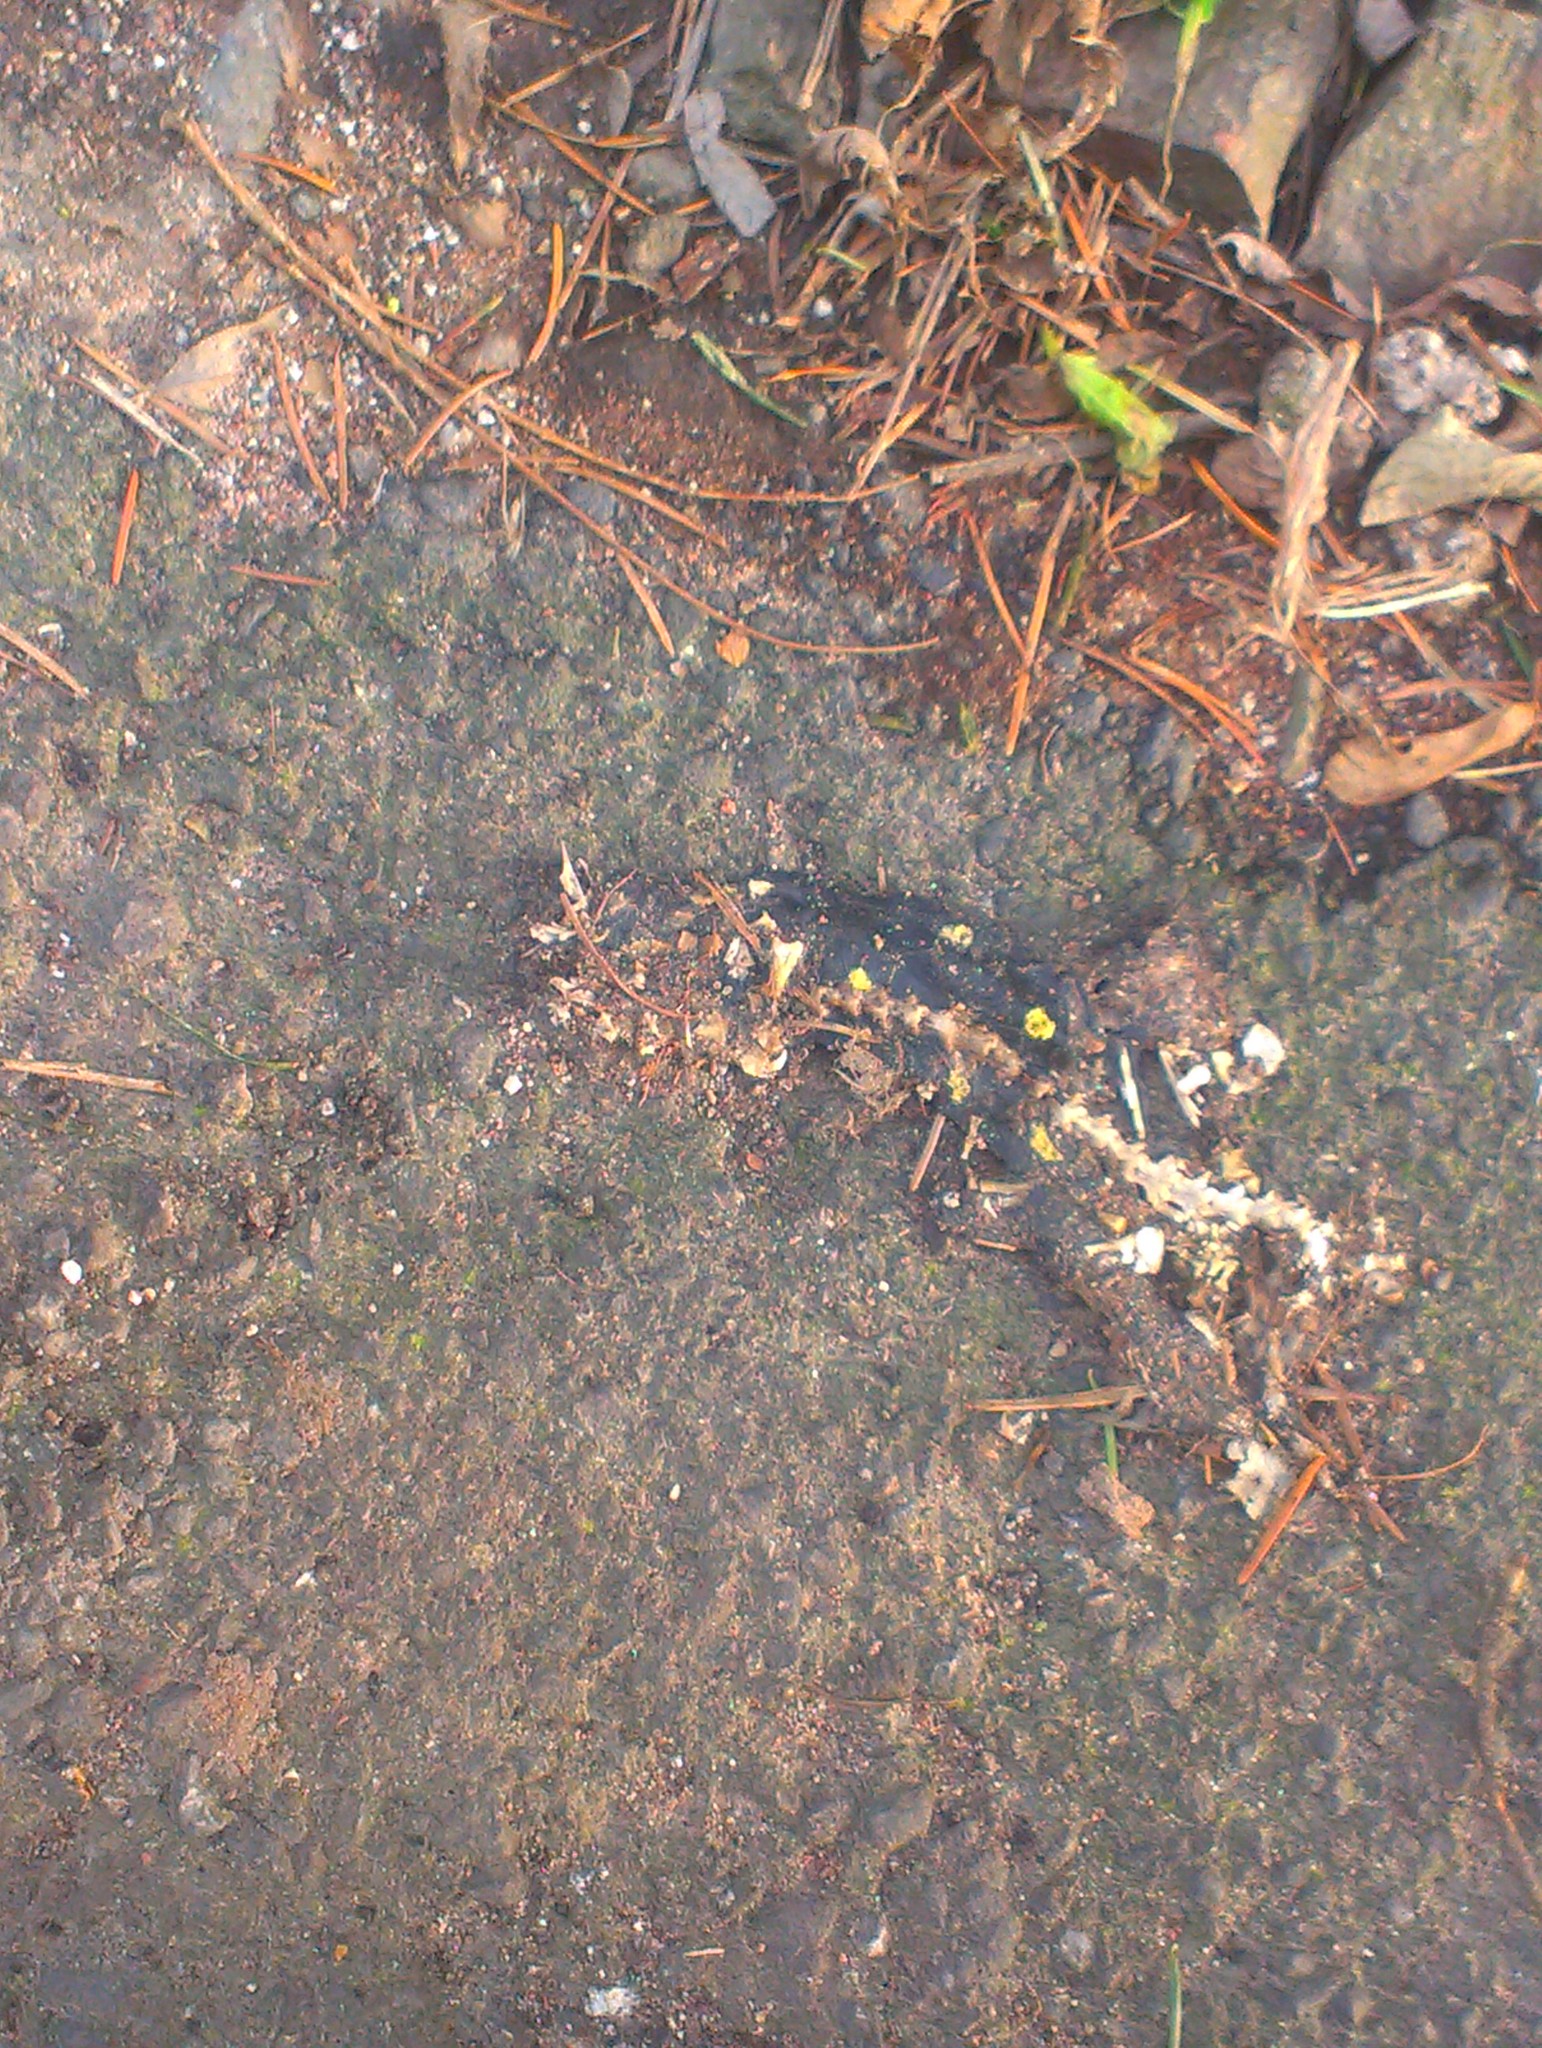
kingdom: Animalia
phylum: Chordata
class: Amphibia
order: Caudata
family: Salamandridae
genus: Salamandra
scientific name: Salamandra salamandra
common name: Fire salamander
